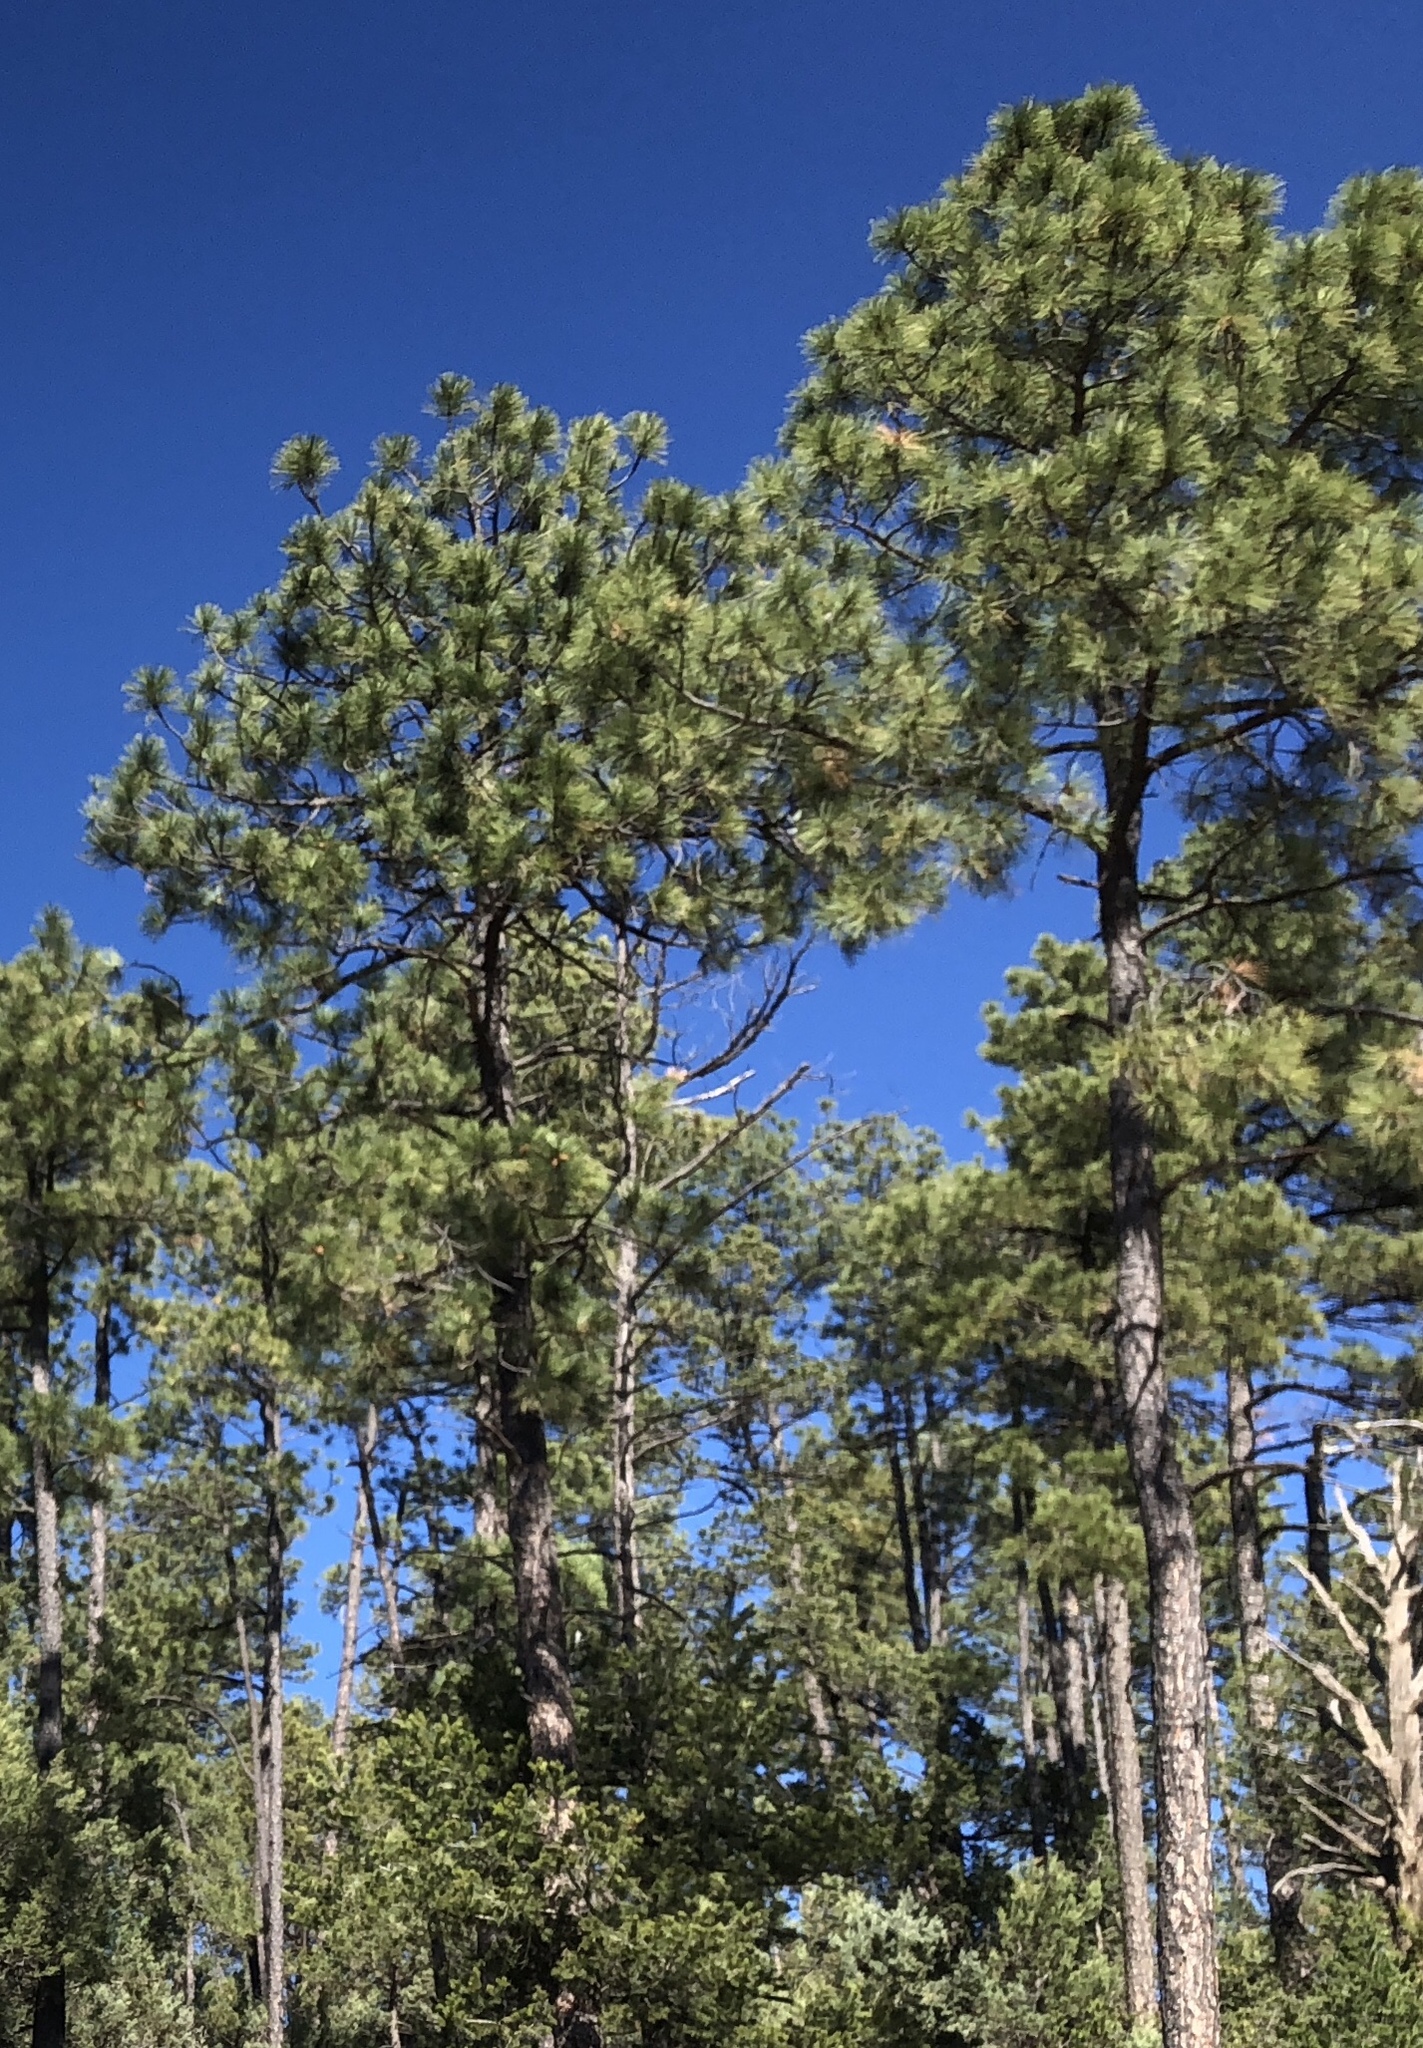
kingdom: Plantae
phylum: Tracheophyta
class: Pinopsida
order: Pinales
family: Pinaceae
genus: Pinus
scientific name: Pinus ponderosa
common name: Western yellow-pine
